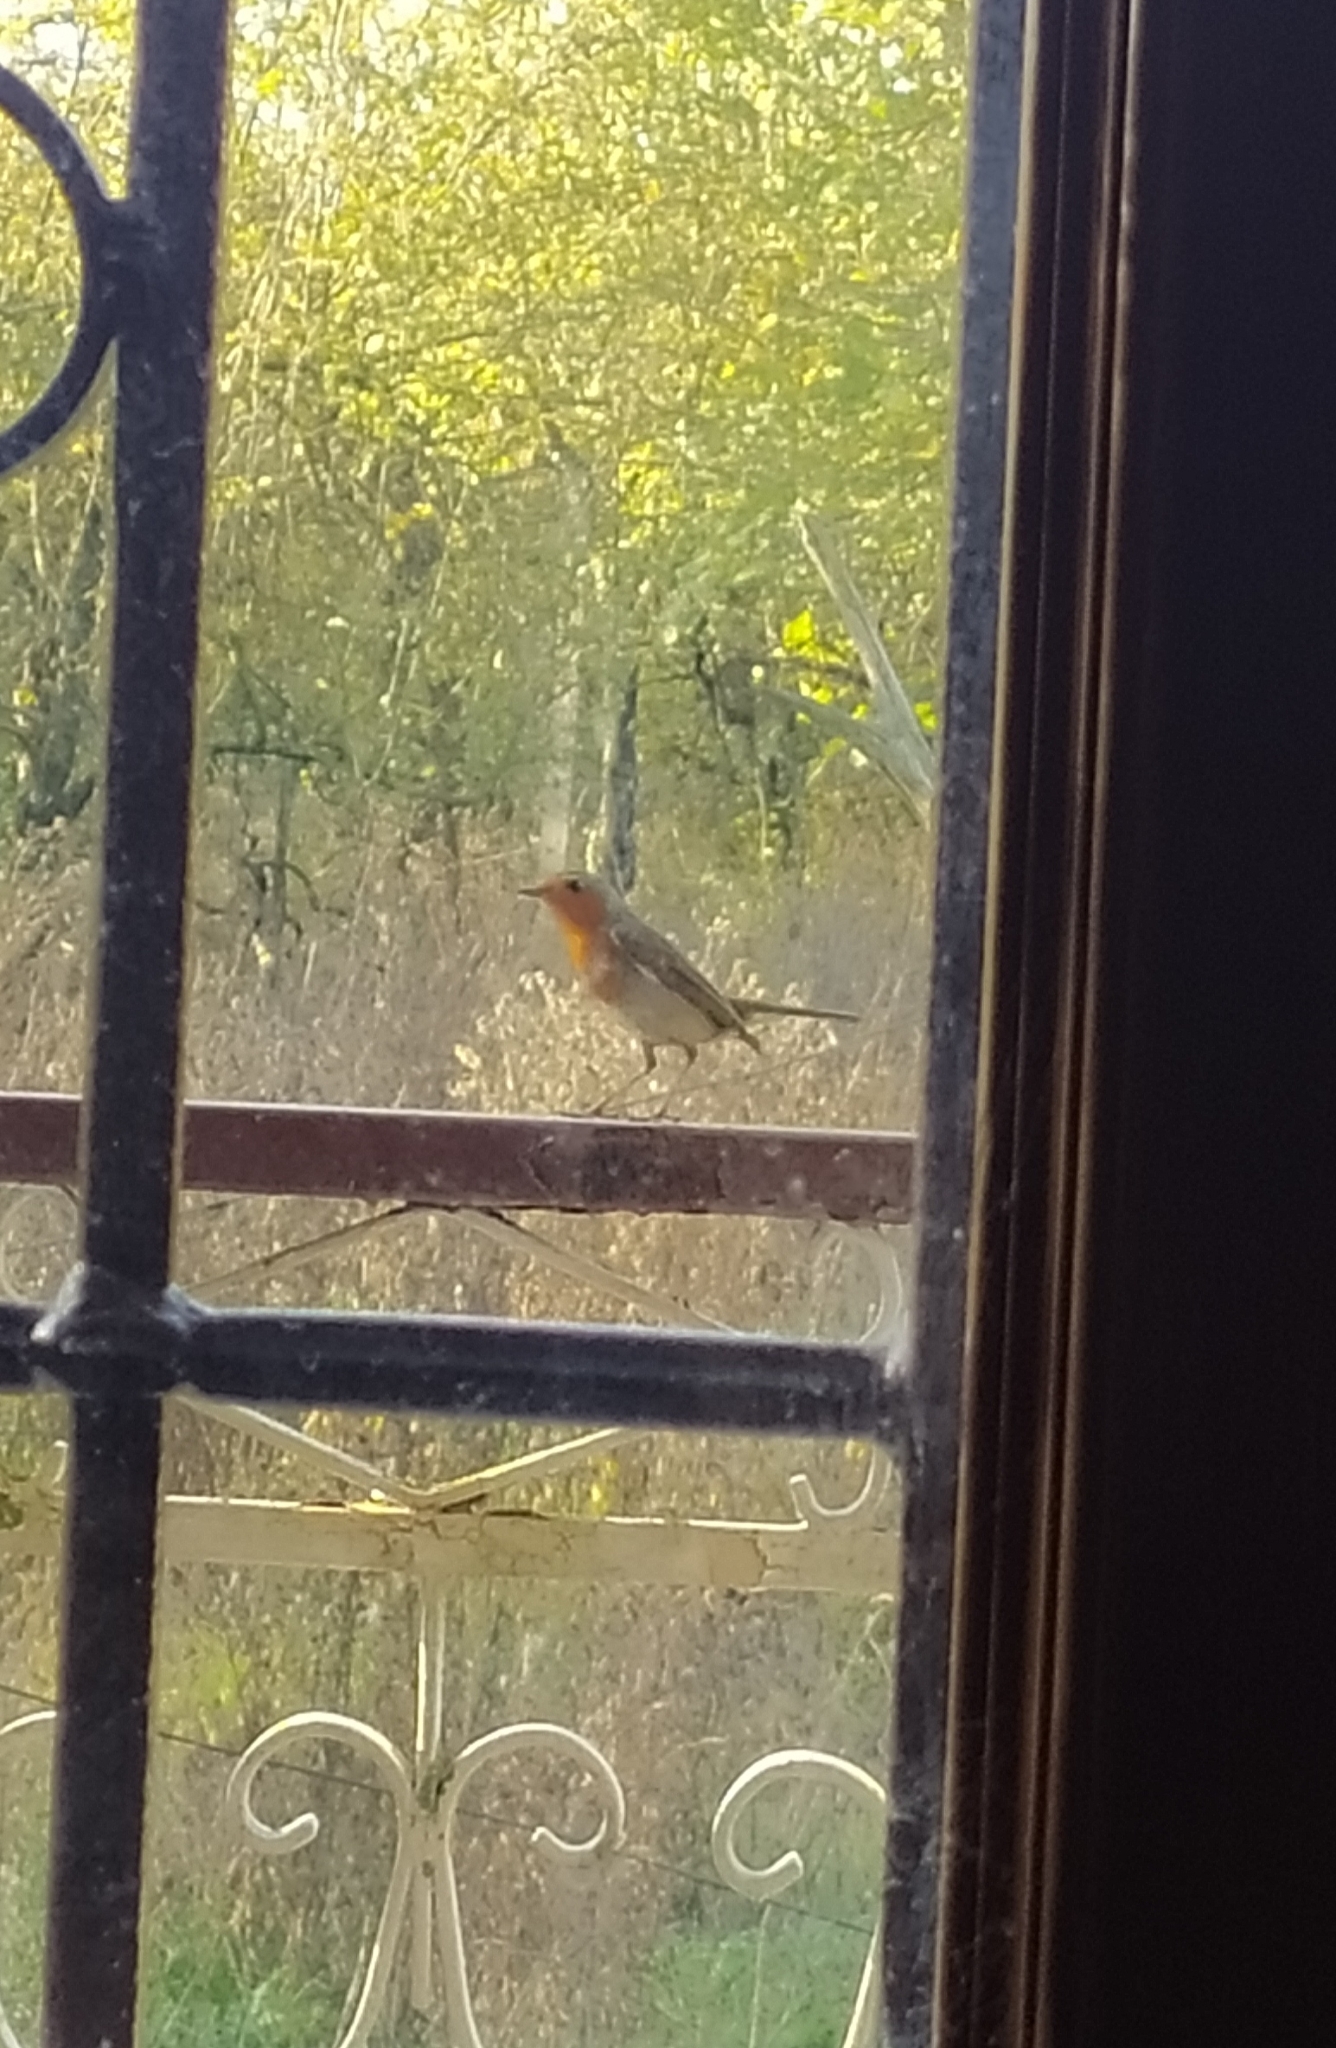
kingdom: Animalia
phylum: Chordata
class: Aves
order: Passeriformes
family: Muscicapidae
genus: Erithacus
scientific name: Erithacus rubecula
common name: European robin
